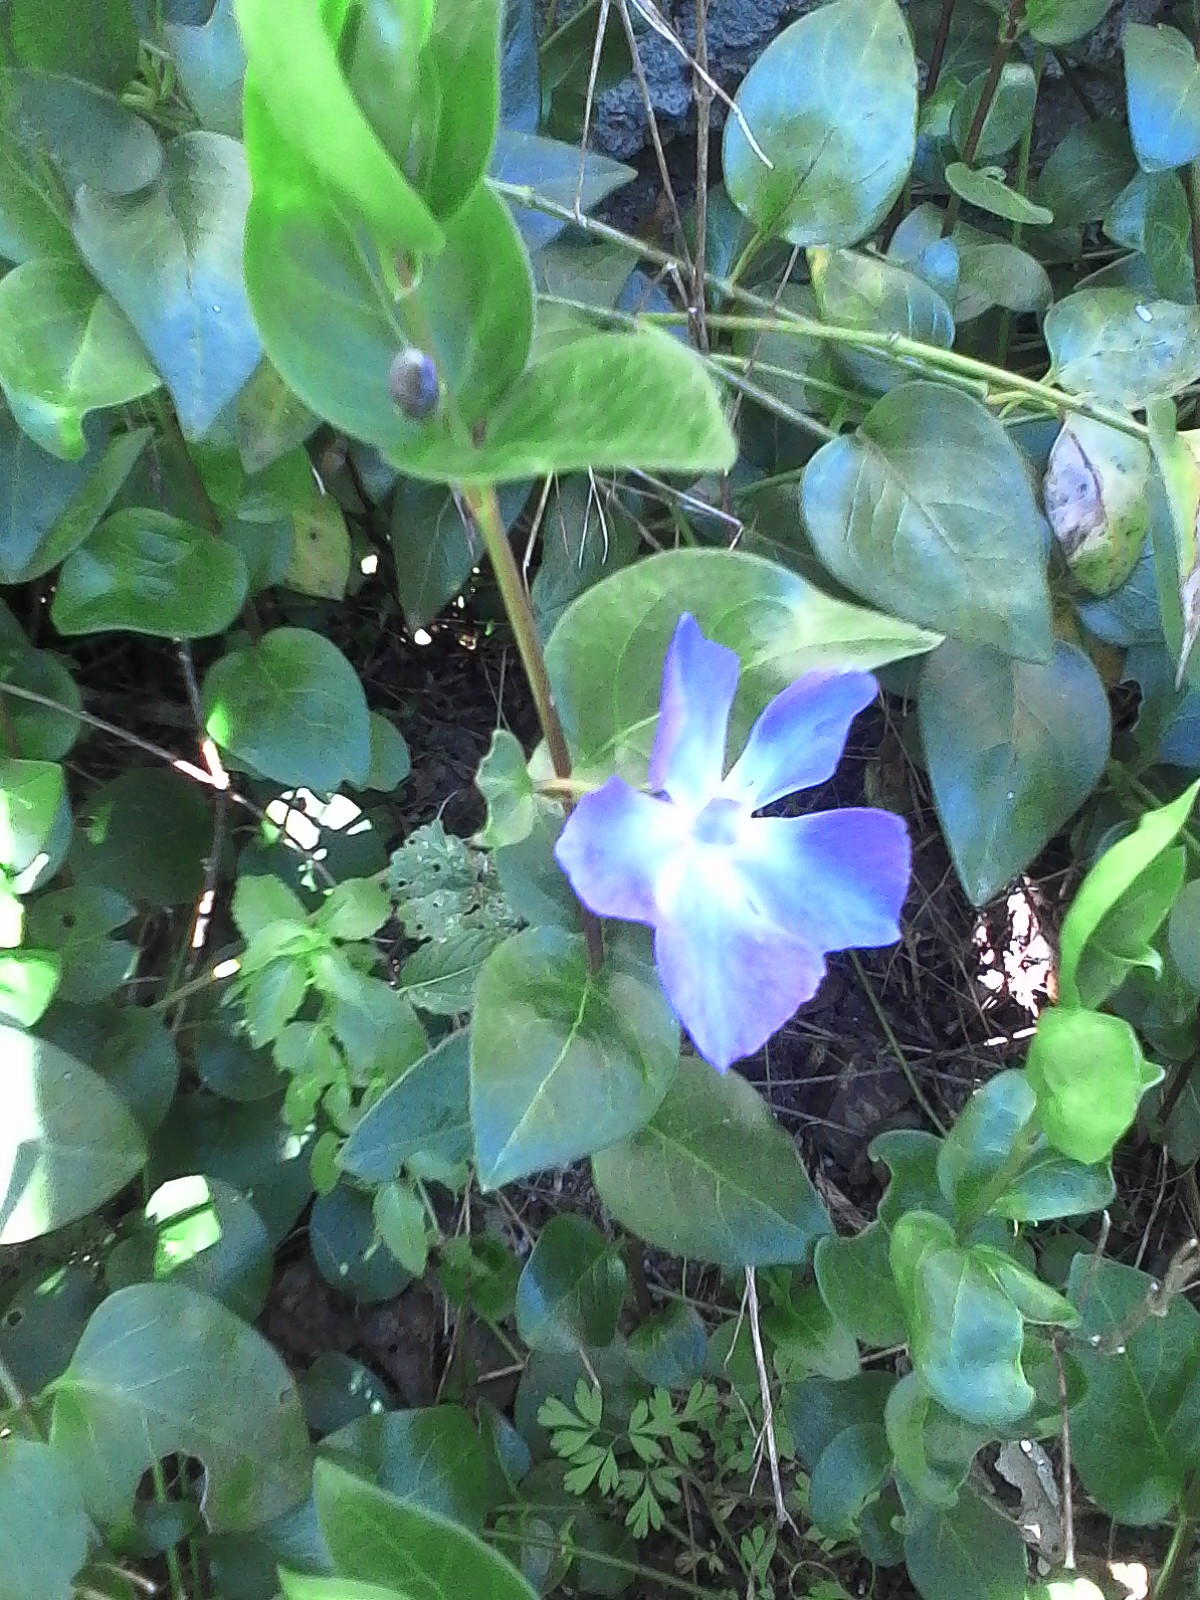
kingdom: Plantae
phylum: Tracheophyta
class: Magnoliopsida
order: Gentianales
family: Apocynaceae
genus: Vinca
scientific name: Vinca major
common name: Greater periwinkle
